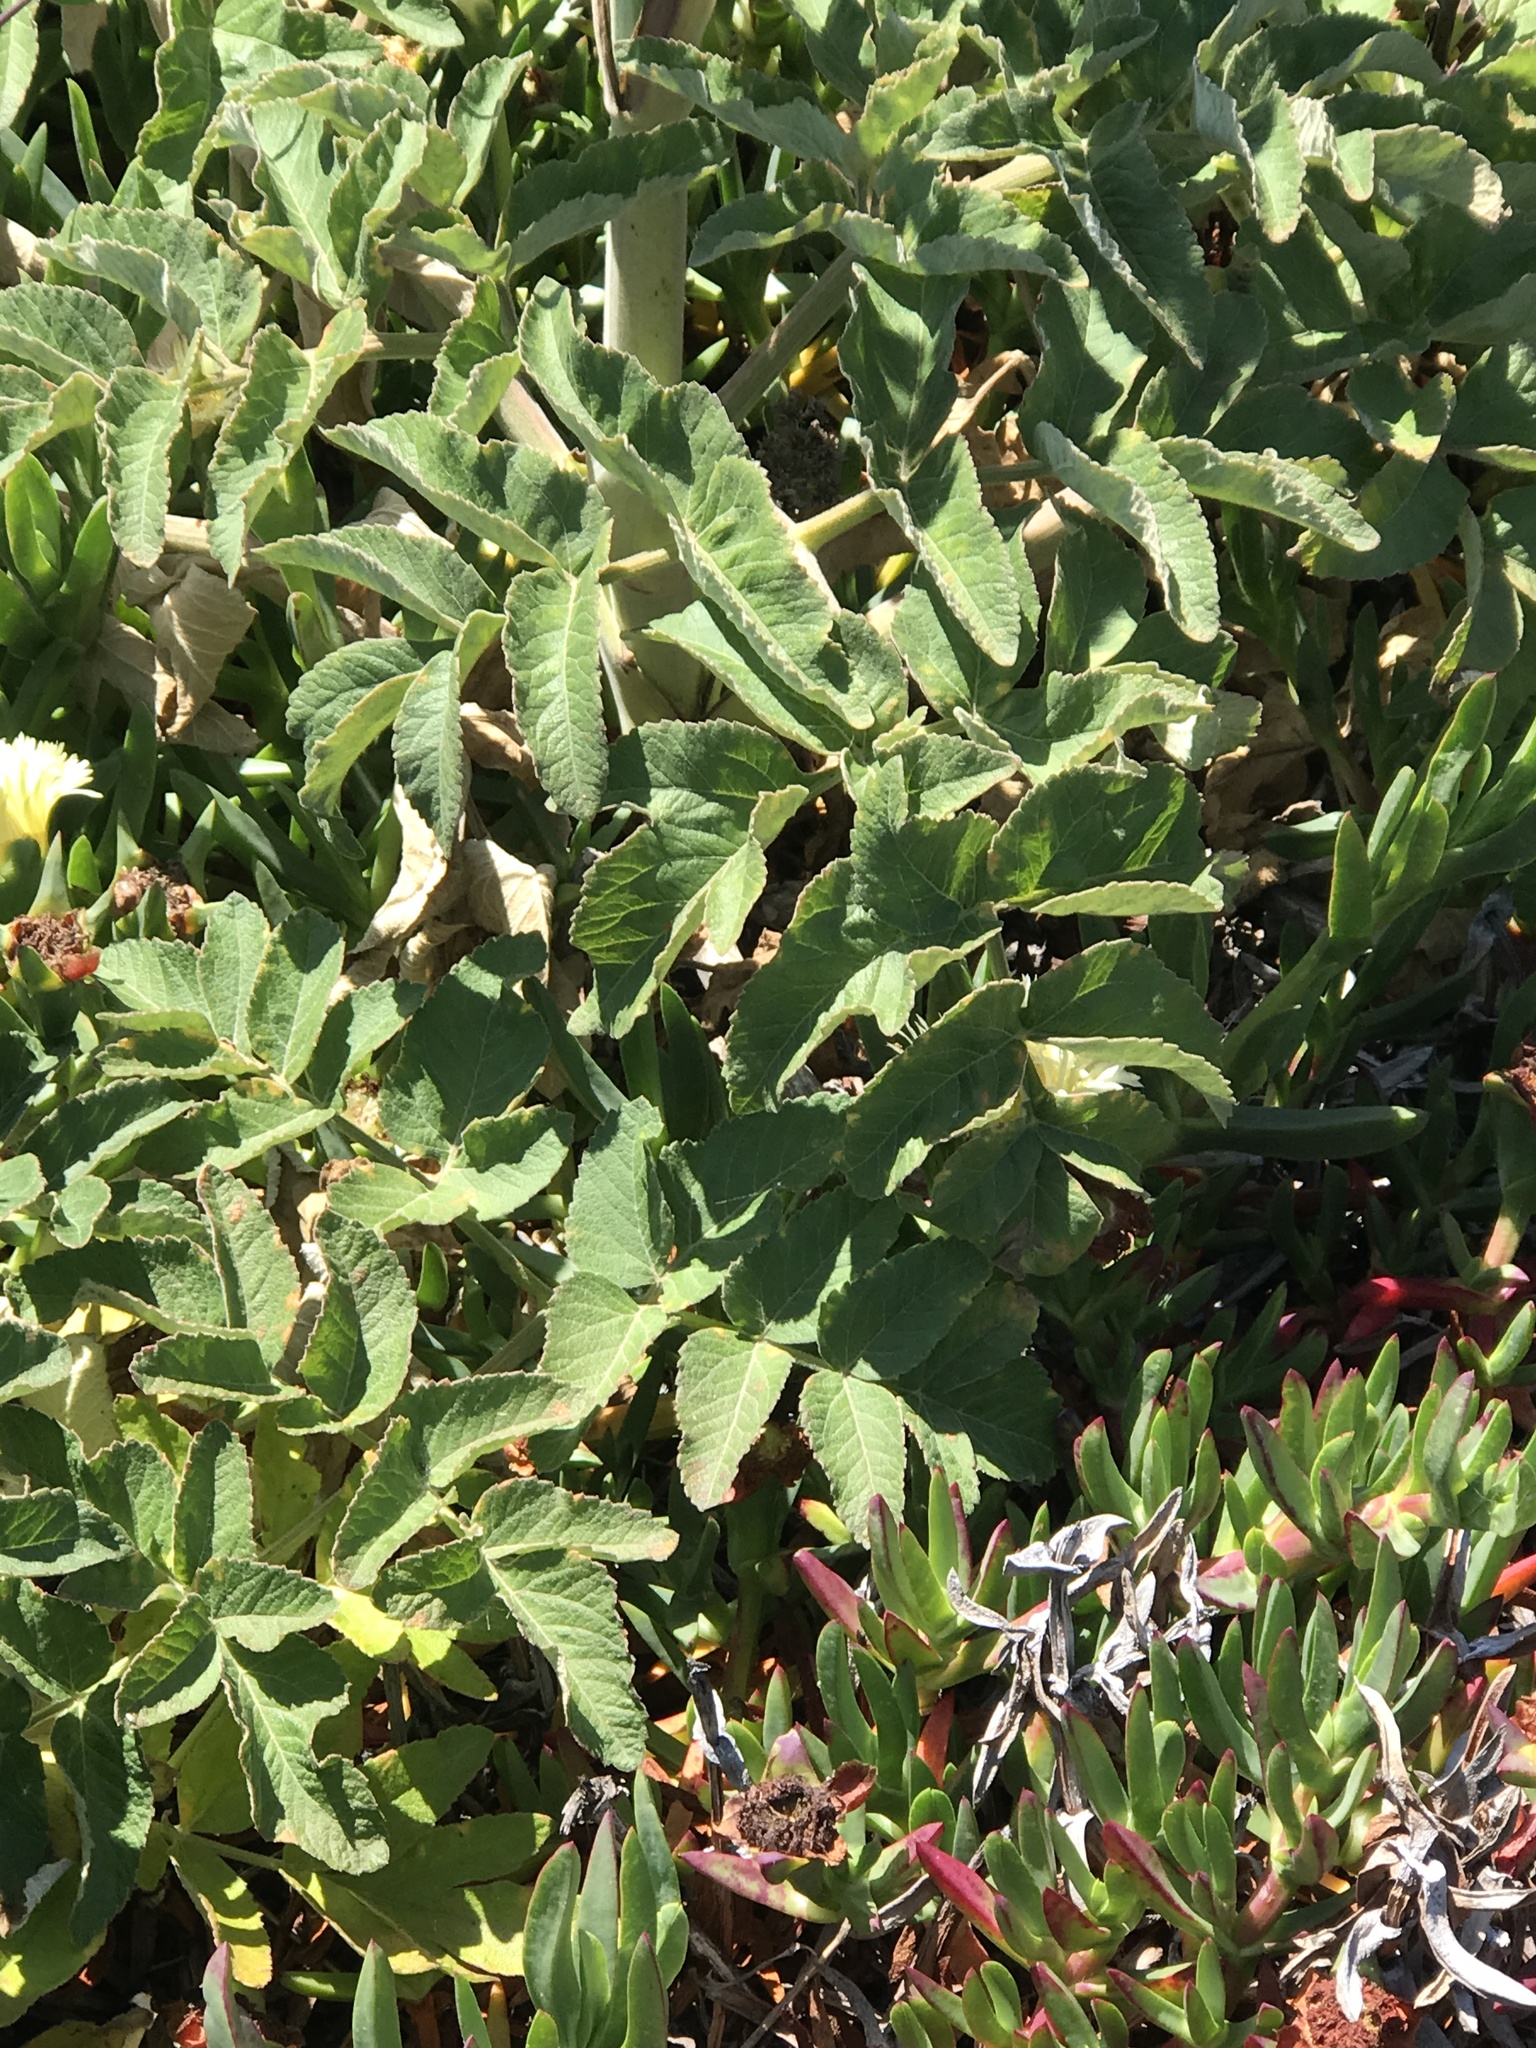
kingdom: Plantae
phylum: Tracheophyta
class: Magnoliopsida
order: Apiales
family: Apiaceae
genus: Angelica
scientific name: Angelica hendersonii
